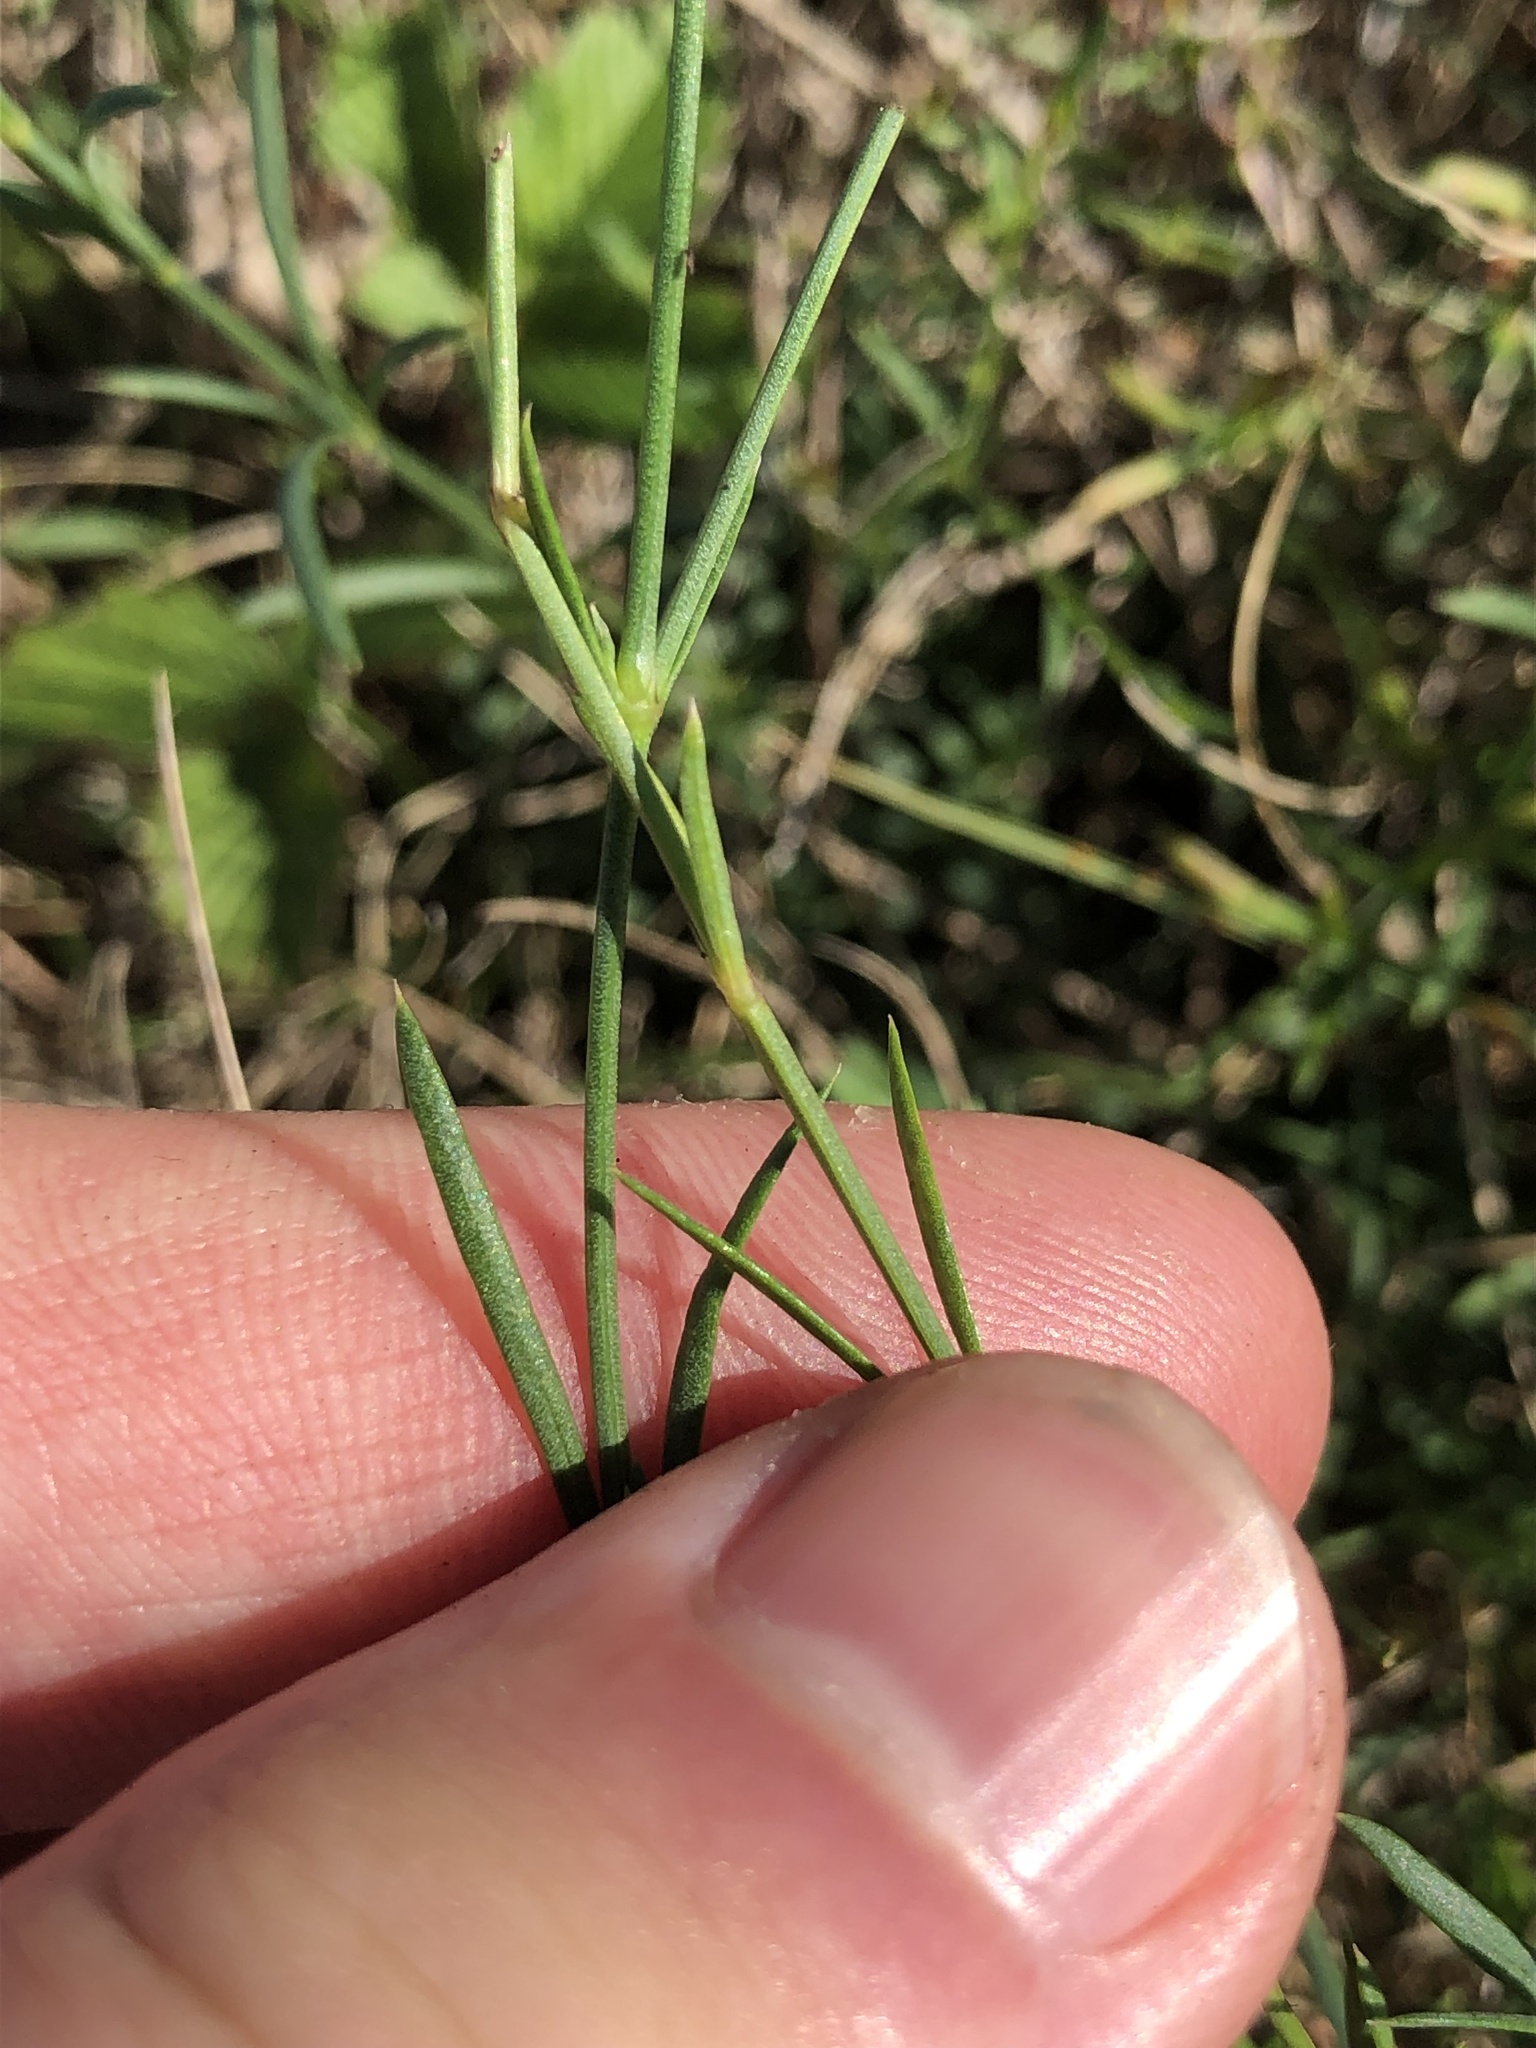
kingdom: Plantae
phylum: Tracheophyta
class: Magnoliopsida
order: Gentianales
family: Rubiaceae
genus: Cynanchica
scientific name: Cynanchica pyrenaica
